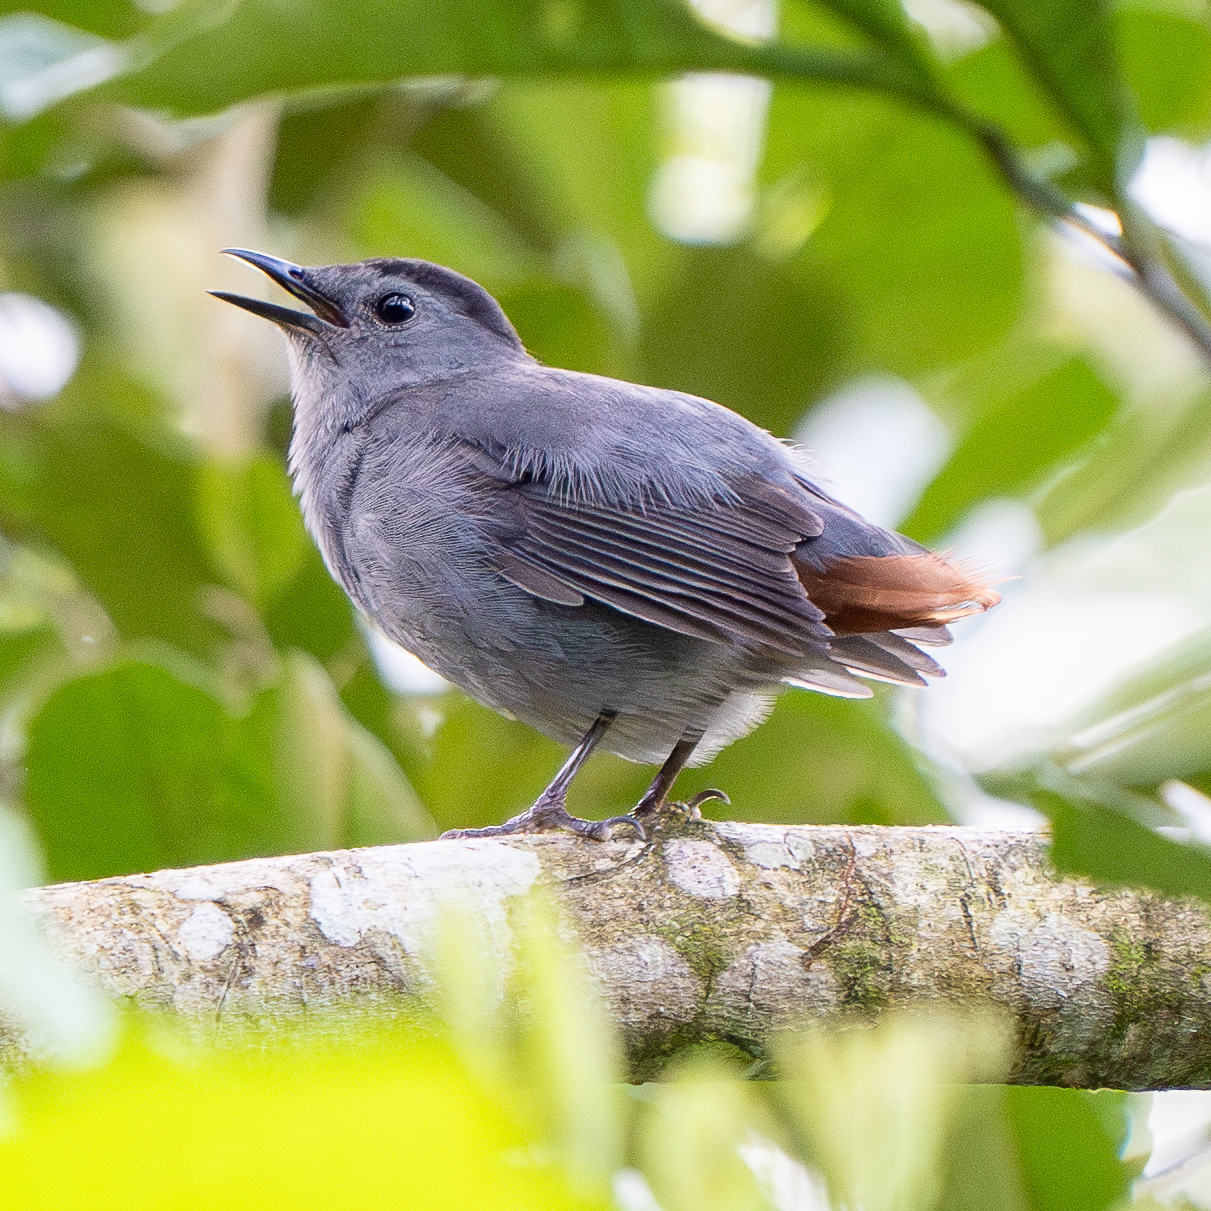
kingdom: Animalia
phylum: Chordata
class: Aves
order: Passeriformes
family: Mimidae
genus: Dumetella
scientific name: Dumetella carolinensis
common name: Gray catbird
